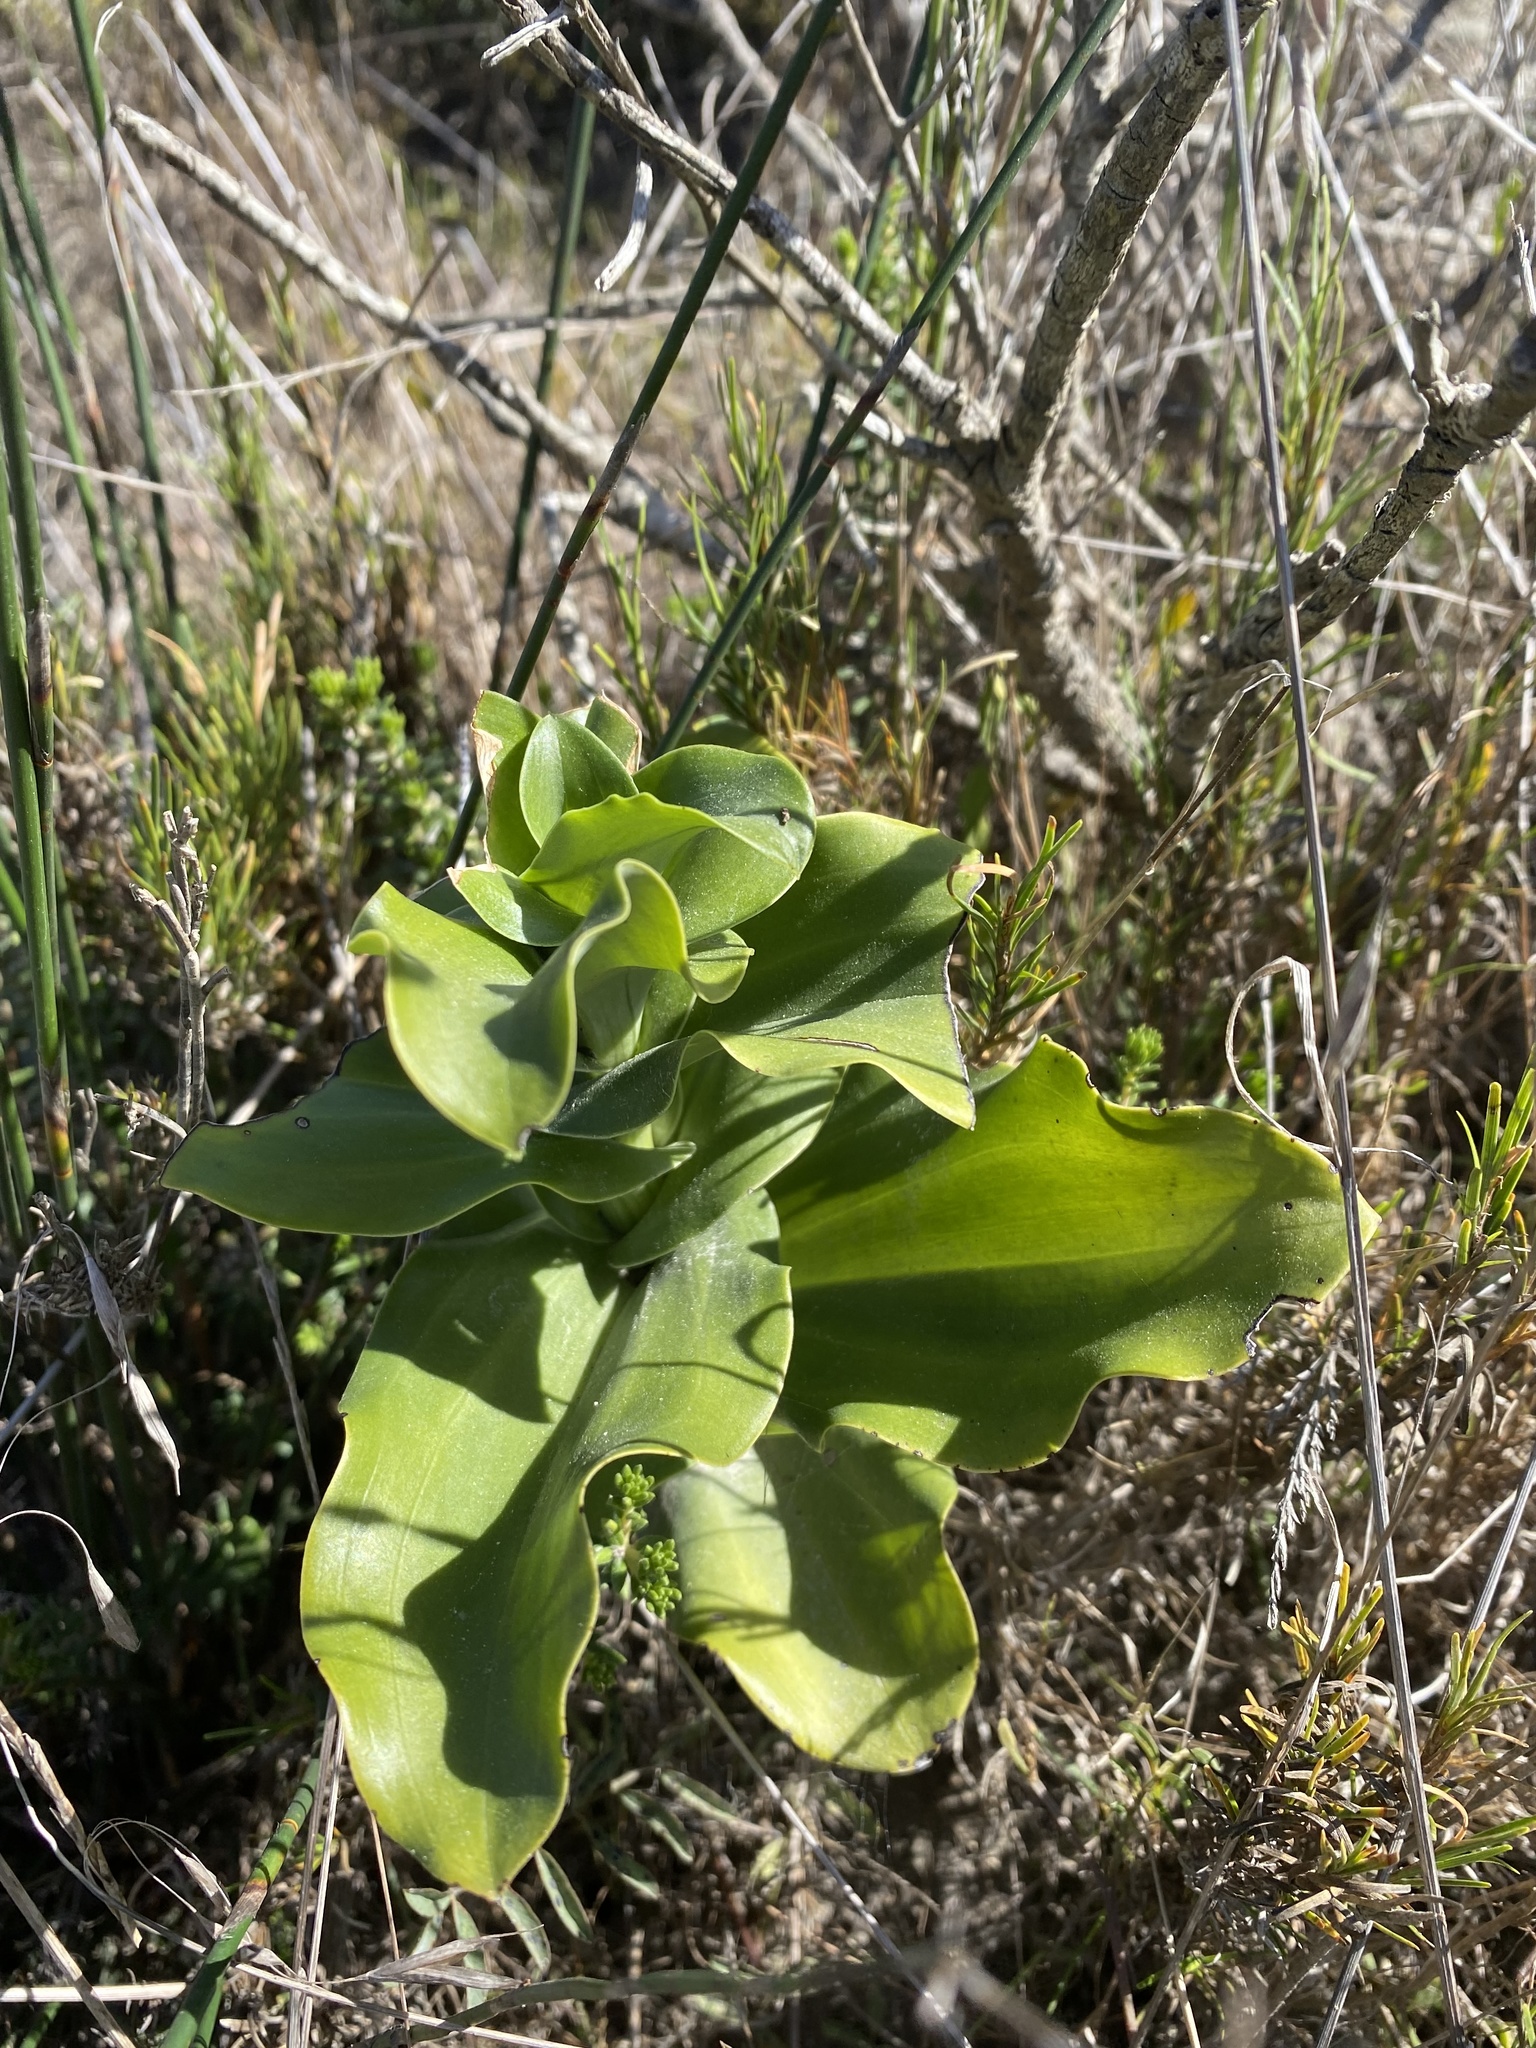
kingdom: Plantae
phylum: Tracheophyta
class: Liliopsida
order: Asparagales
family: Orchidaceae
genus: Bonatea
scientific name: Bonatea speciosa
